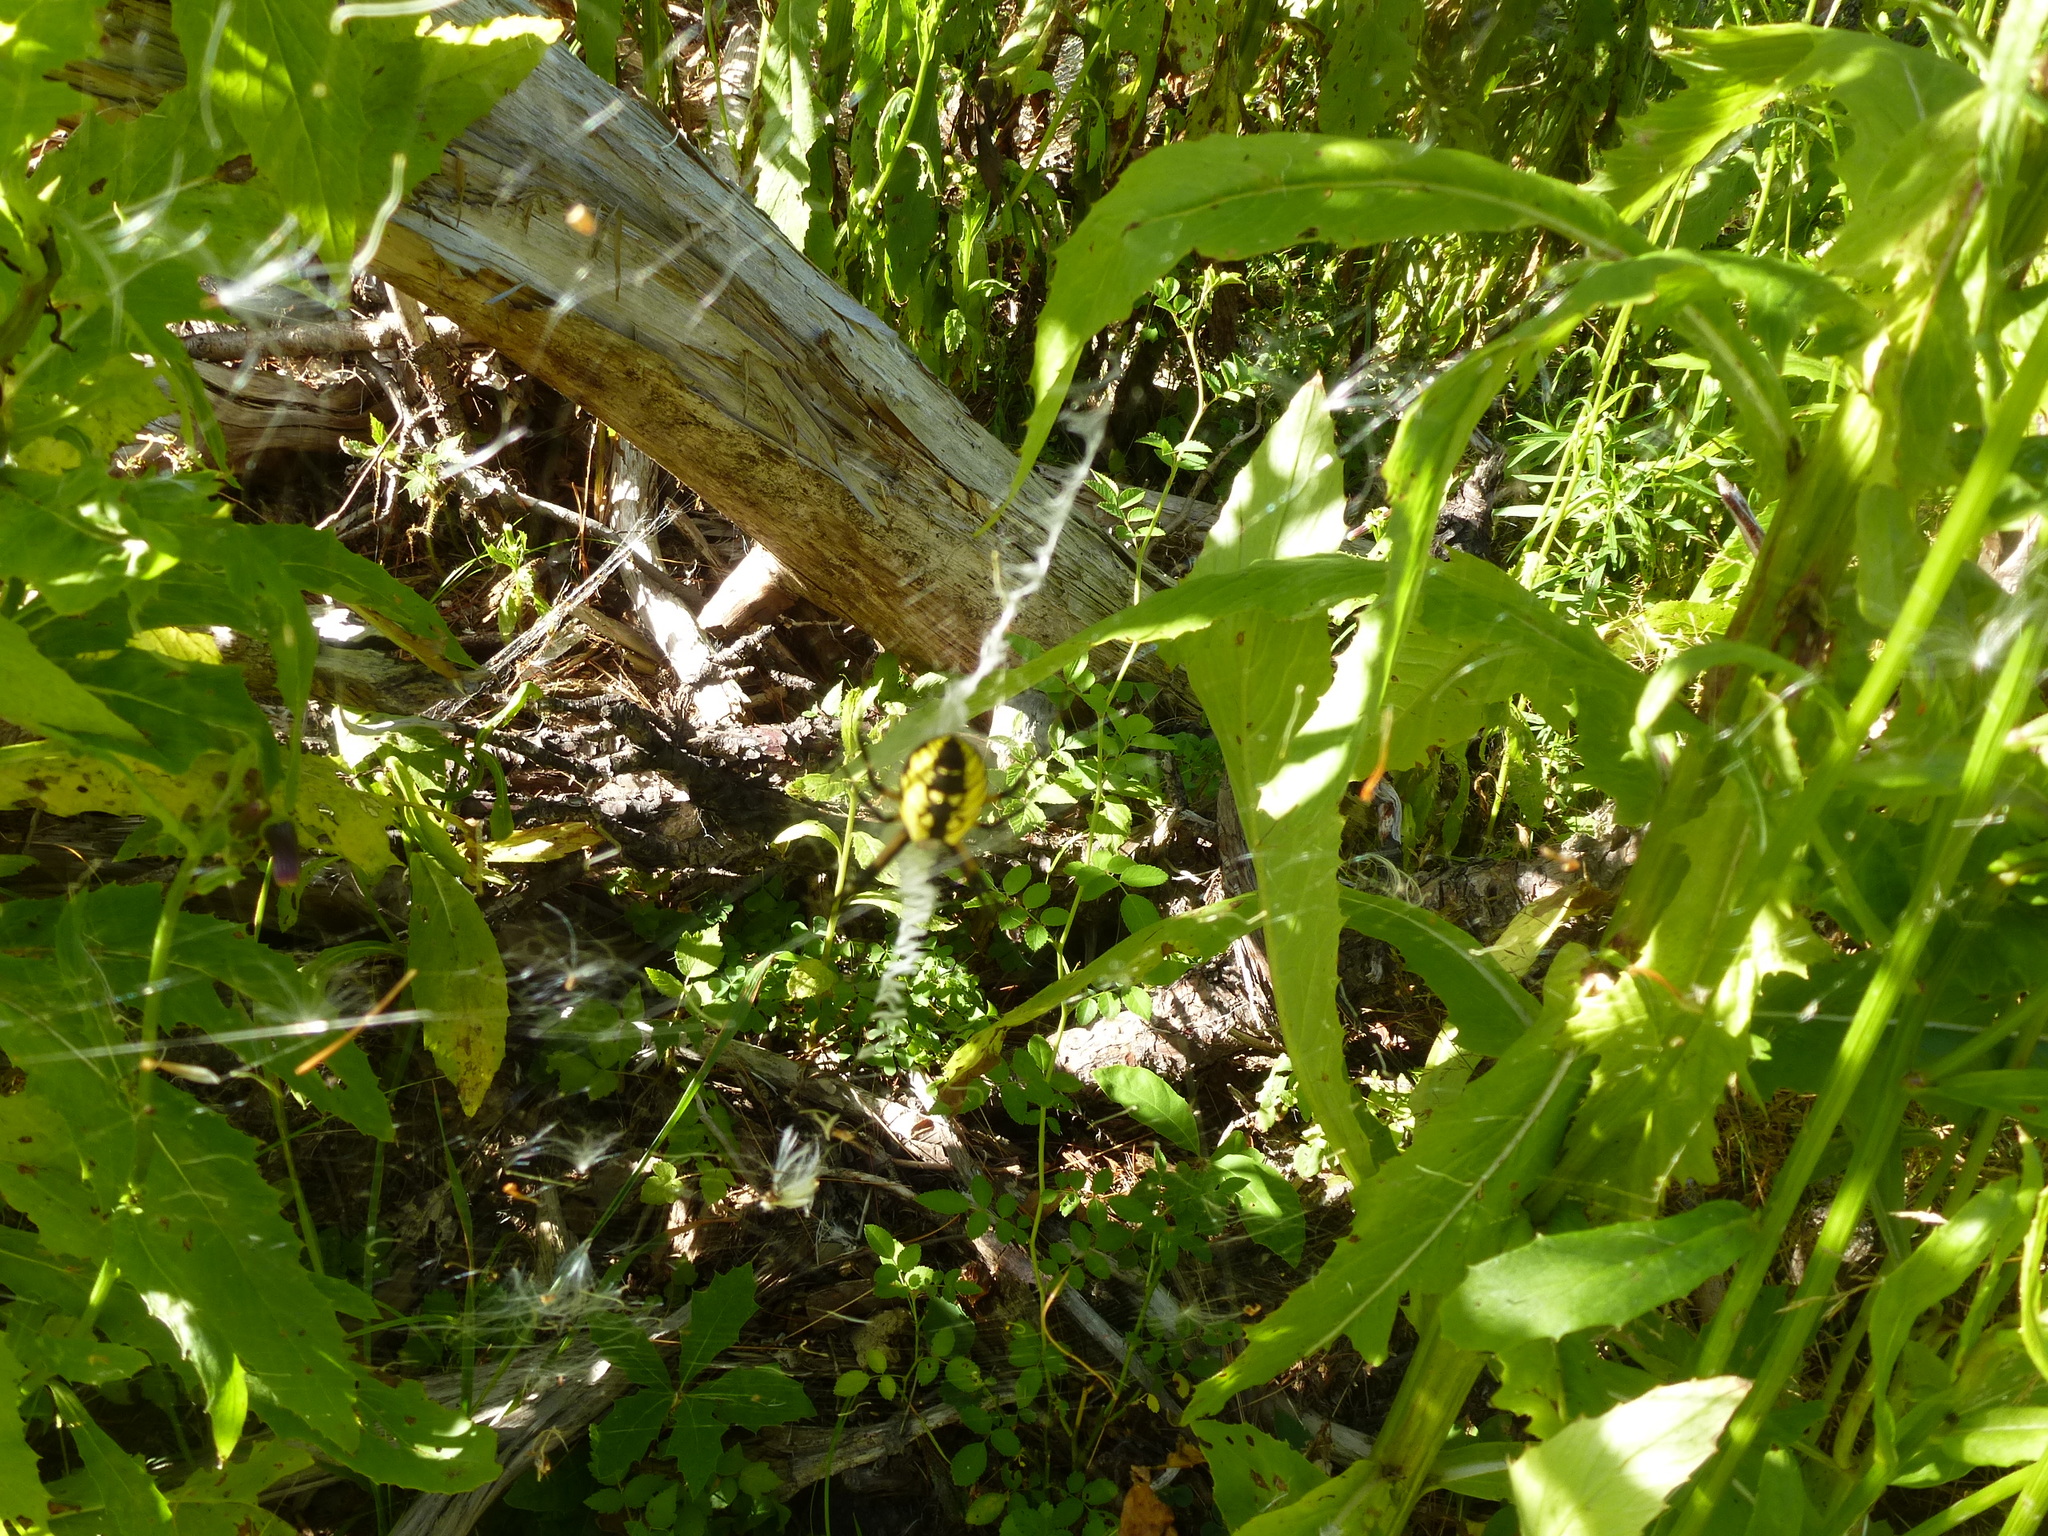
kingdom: Animalia
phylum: Arthropoda
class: Arachnida
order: Araneae
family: Araneidae
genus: Argiope
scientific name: Argiope aurantia
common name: Orb weavers
